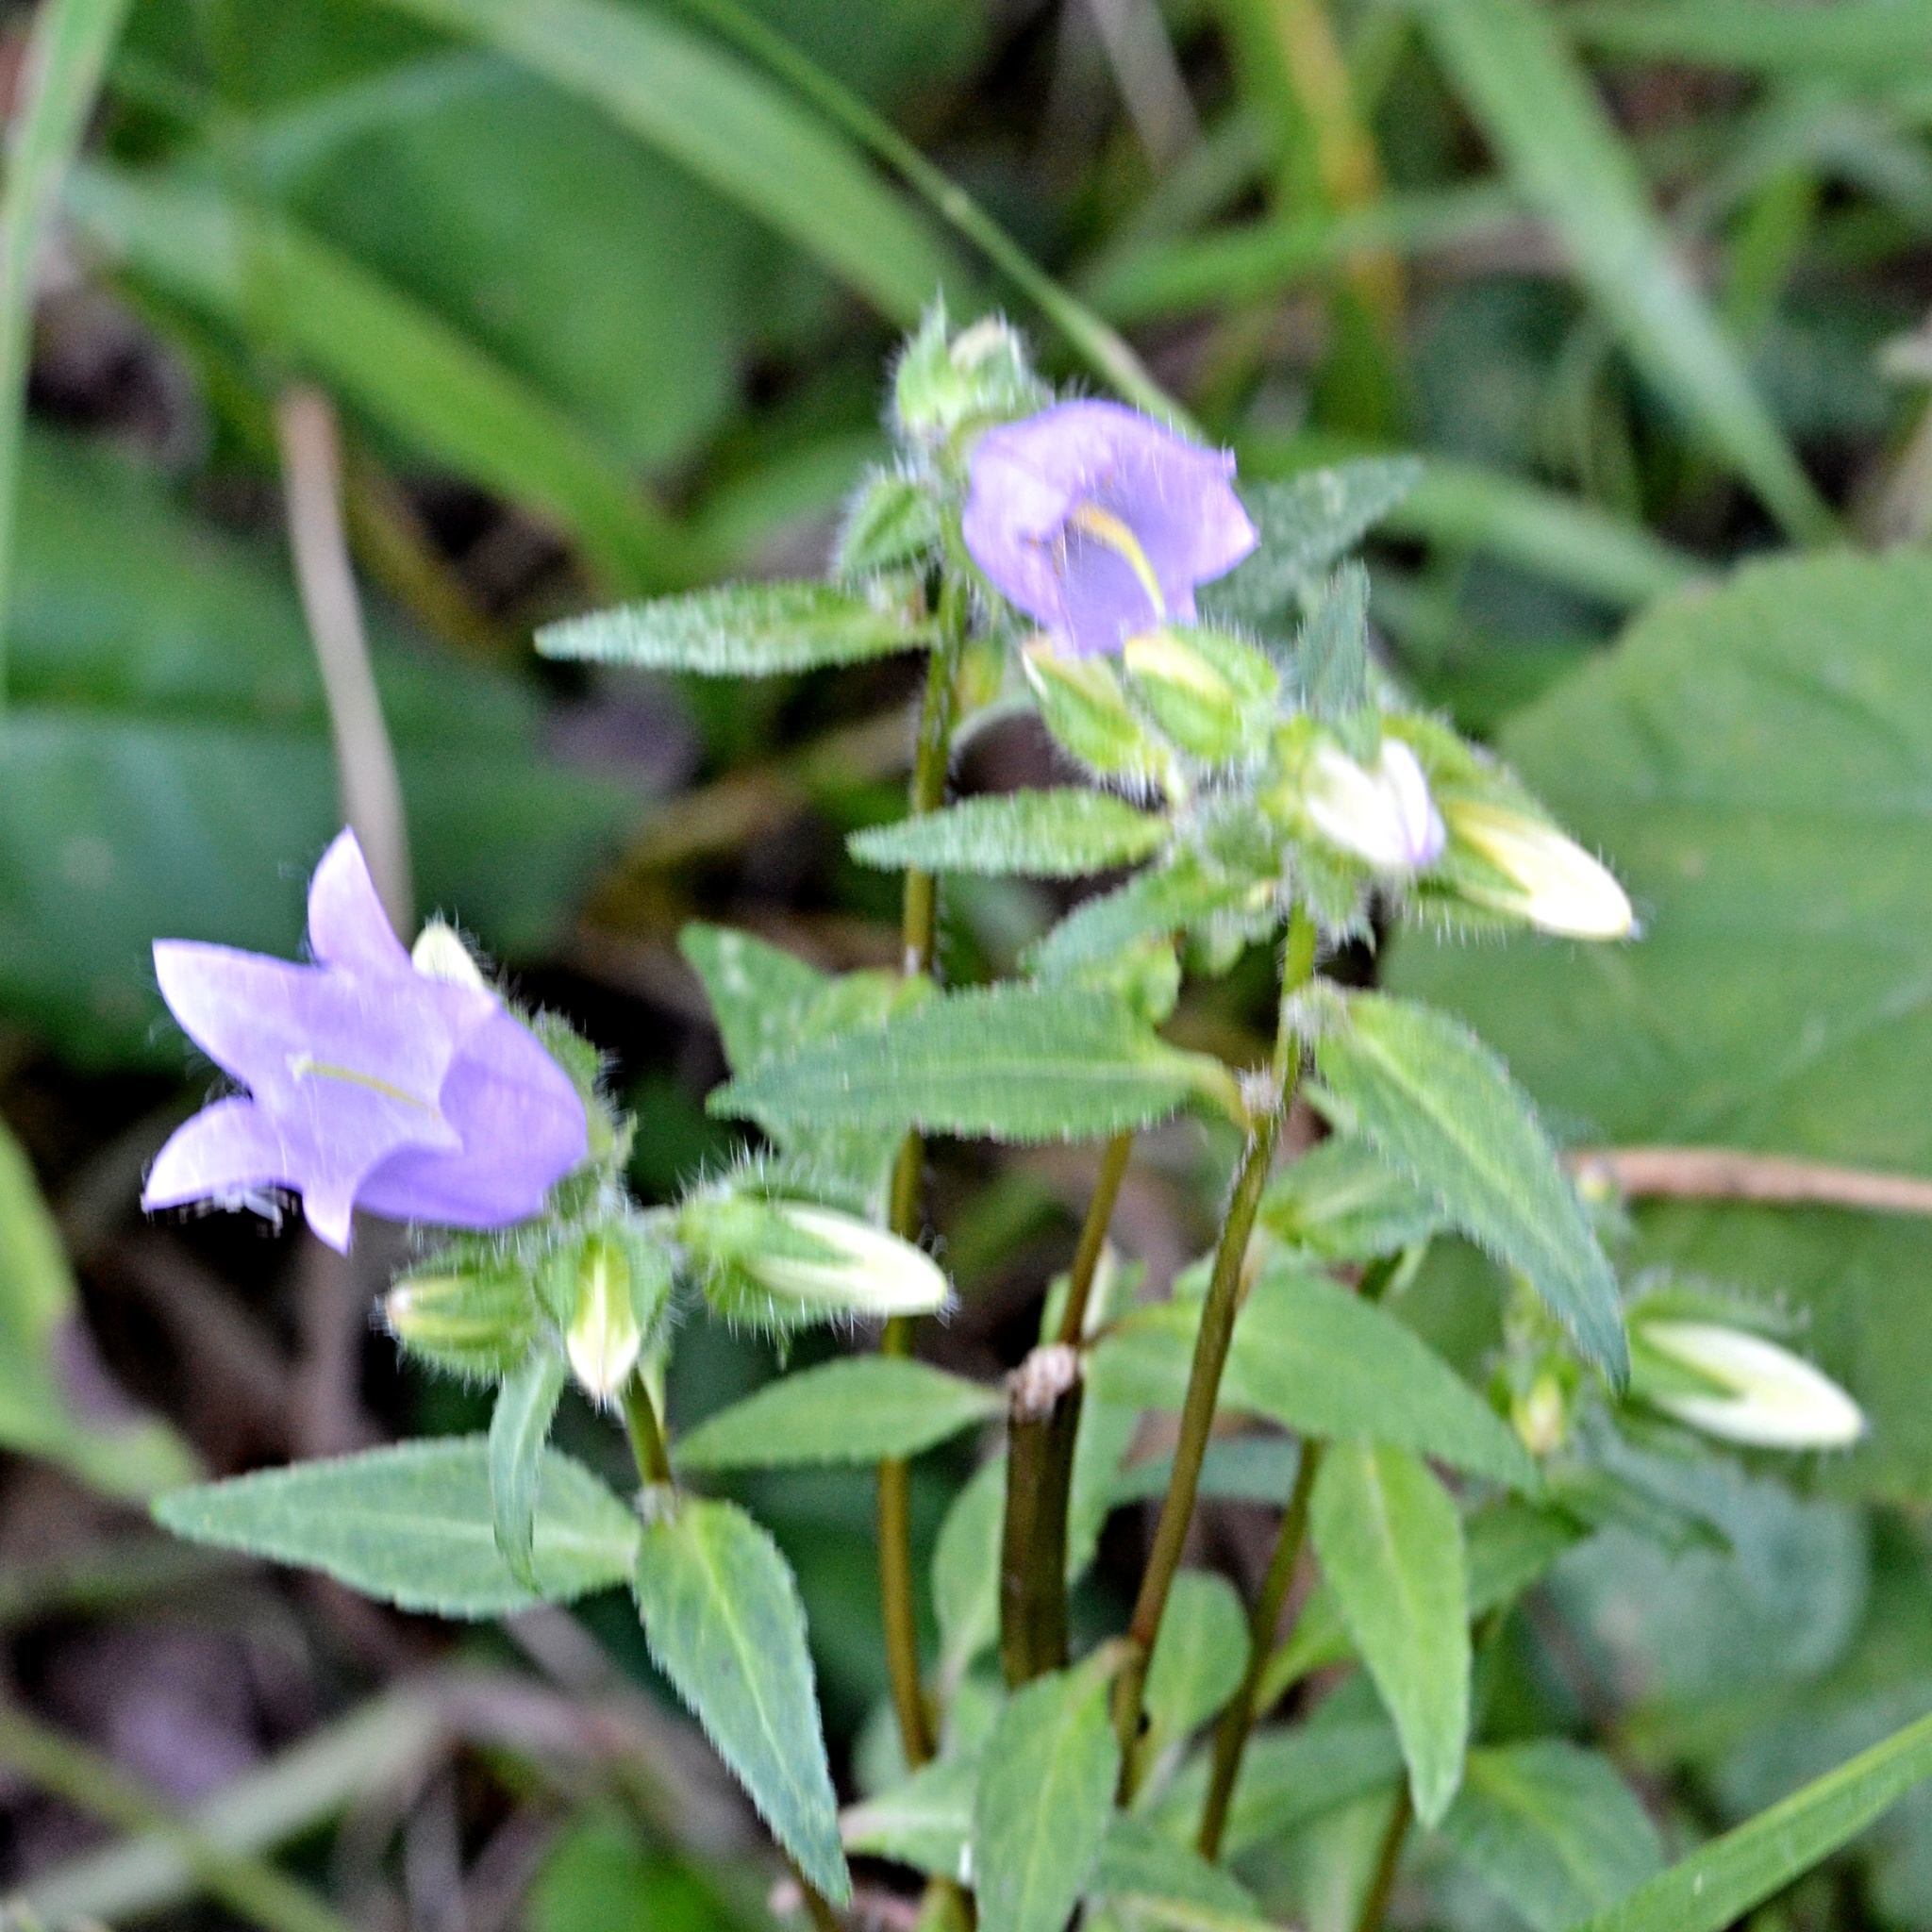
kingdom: Plantae
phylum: Tracheophyta
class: Magnoliopsida
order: Asterales
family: Campanulaceae
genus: Campanula
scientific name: Campanula trachelium
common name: Nettle-leaved bellflower
